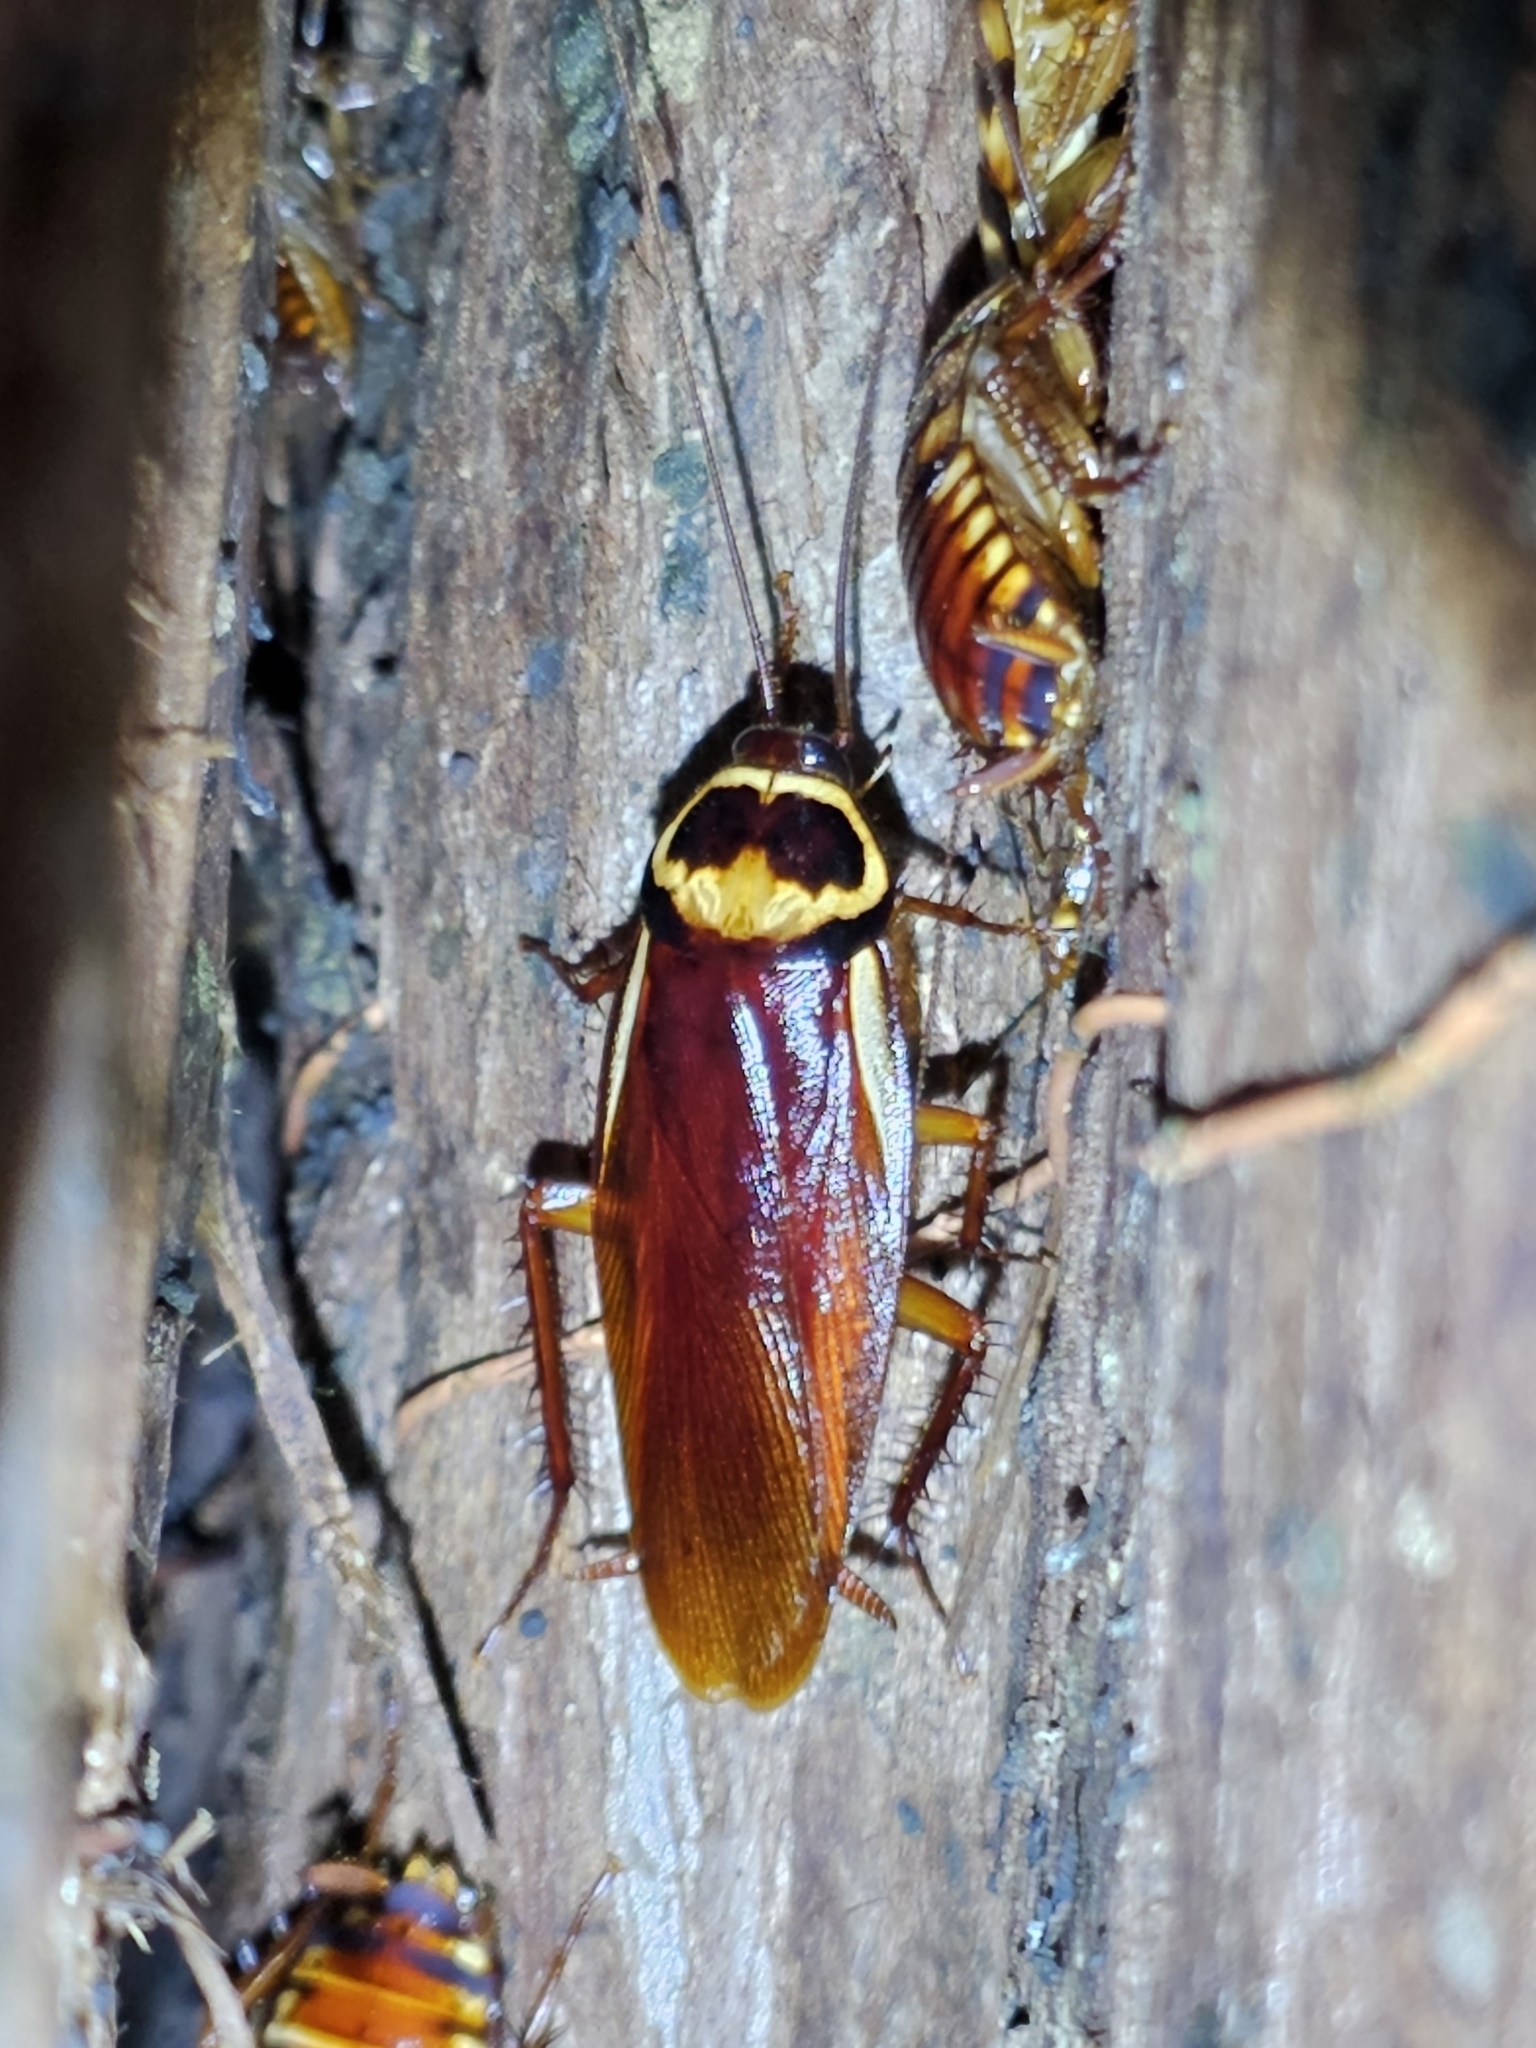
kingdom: Animalia
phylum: Arthropoda
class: Insecta
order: Blattodea
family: Blattidae
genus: Periplaneta
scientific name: Periplaneta australasiae
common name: Australian cockroach
